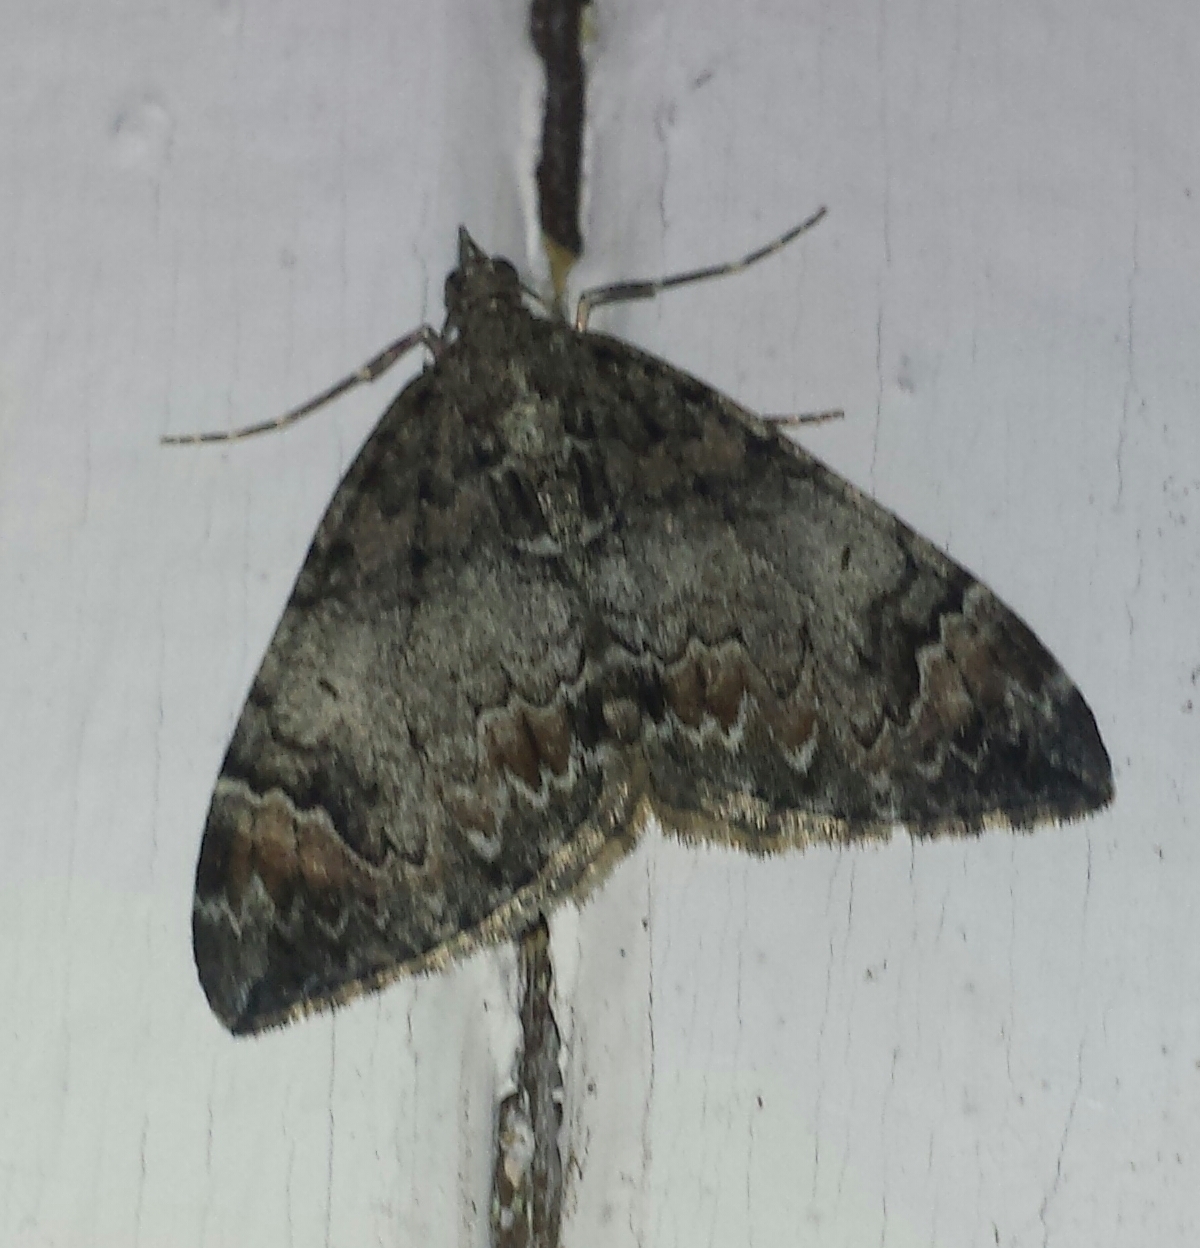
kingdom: Animalia
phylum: Arthropoda
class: Insecta
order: Lepidoptera
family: Geometridae
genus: Dysstroma
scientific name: Dysstroma citrata
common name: Dark marbled carpet
